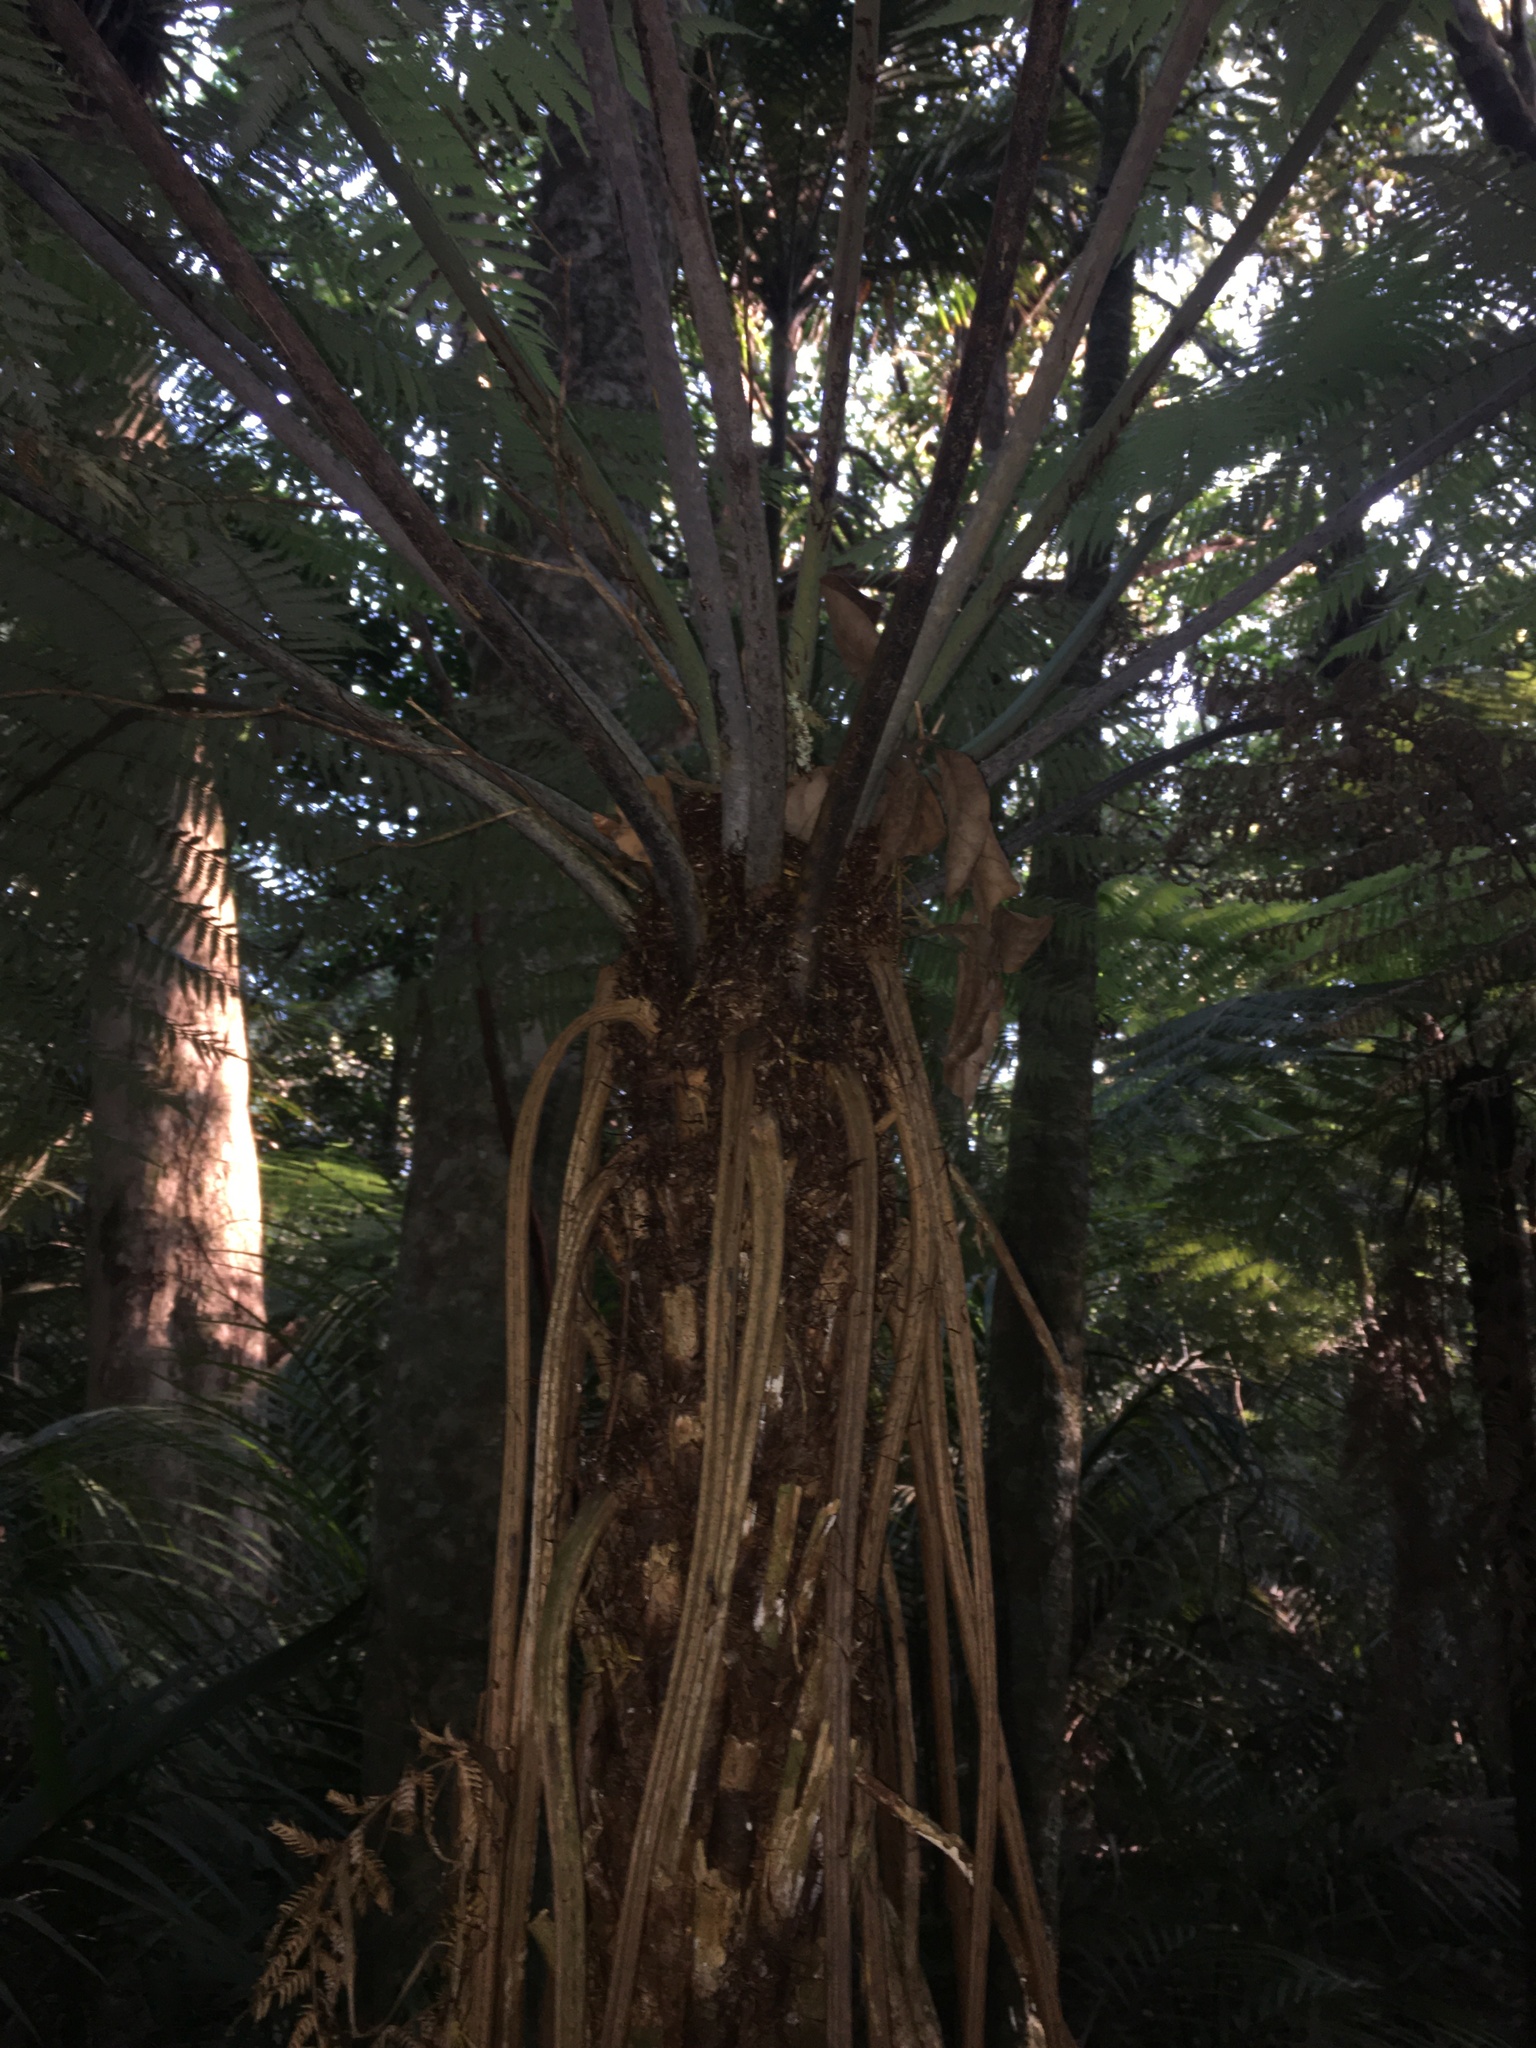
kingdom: Plantae
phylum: Tracheophyta
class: Polypodiopsida
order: Cyatheales
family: Cyatheaceae
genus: Alsophila
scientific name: Alsophila dealbata
